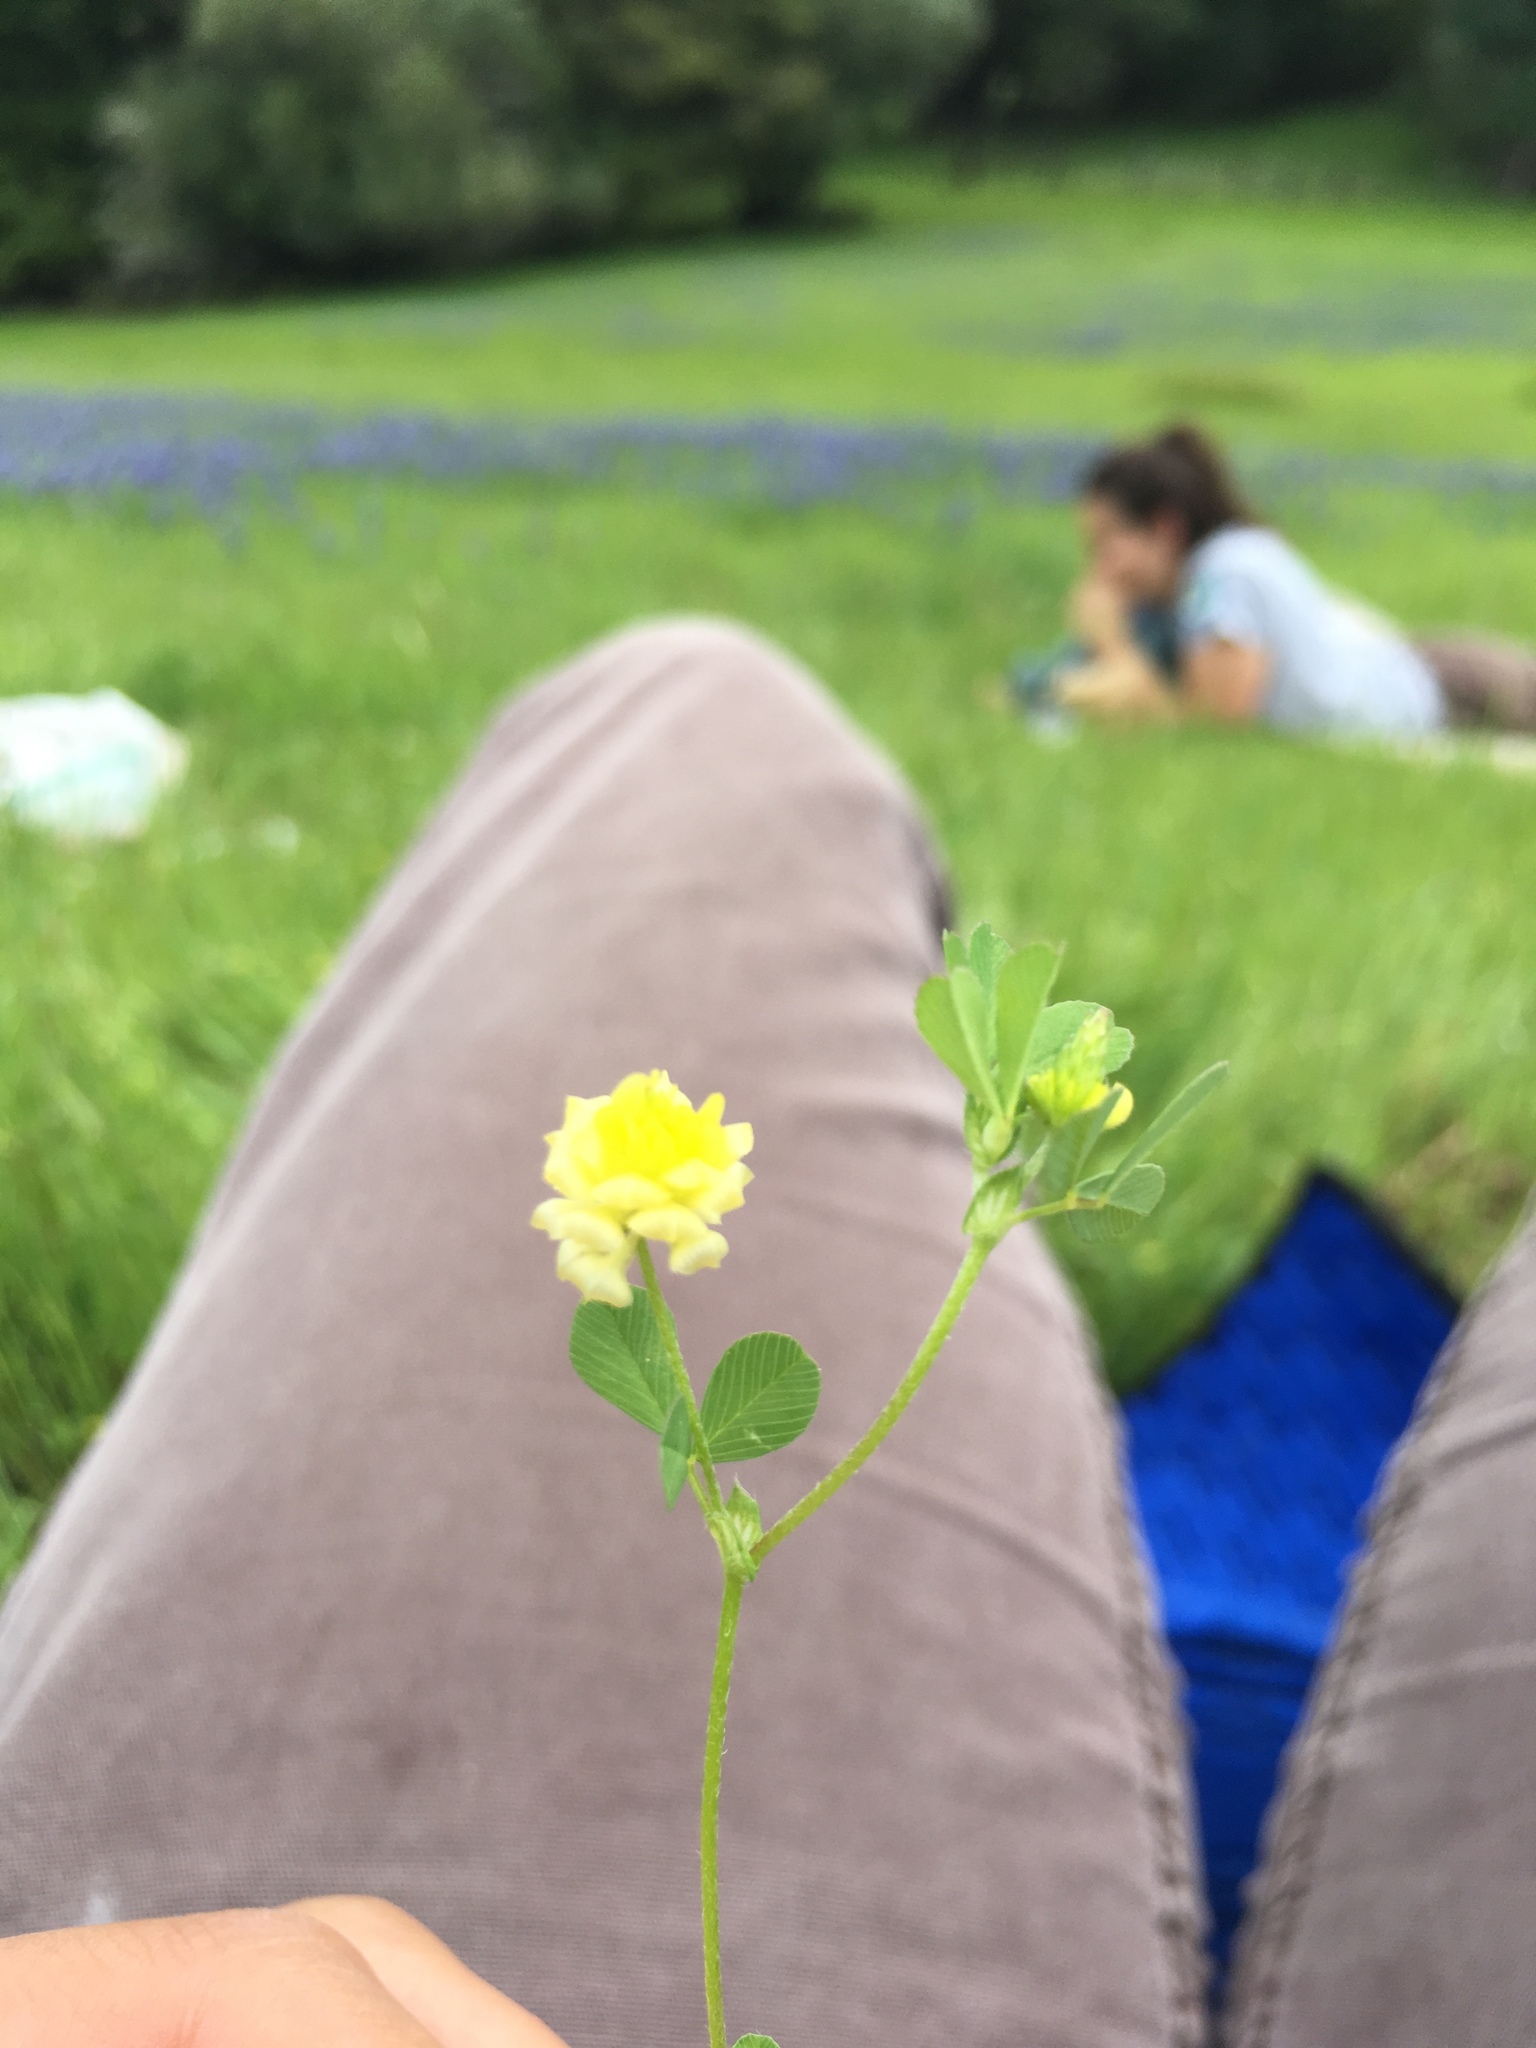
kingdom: Plantae
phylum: Tracheophyta
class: Magnoliopsida
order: Fabales
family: Fabaceae
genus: Trifolium
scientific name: Trifolium campestre
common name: Field clover
